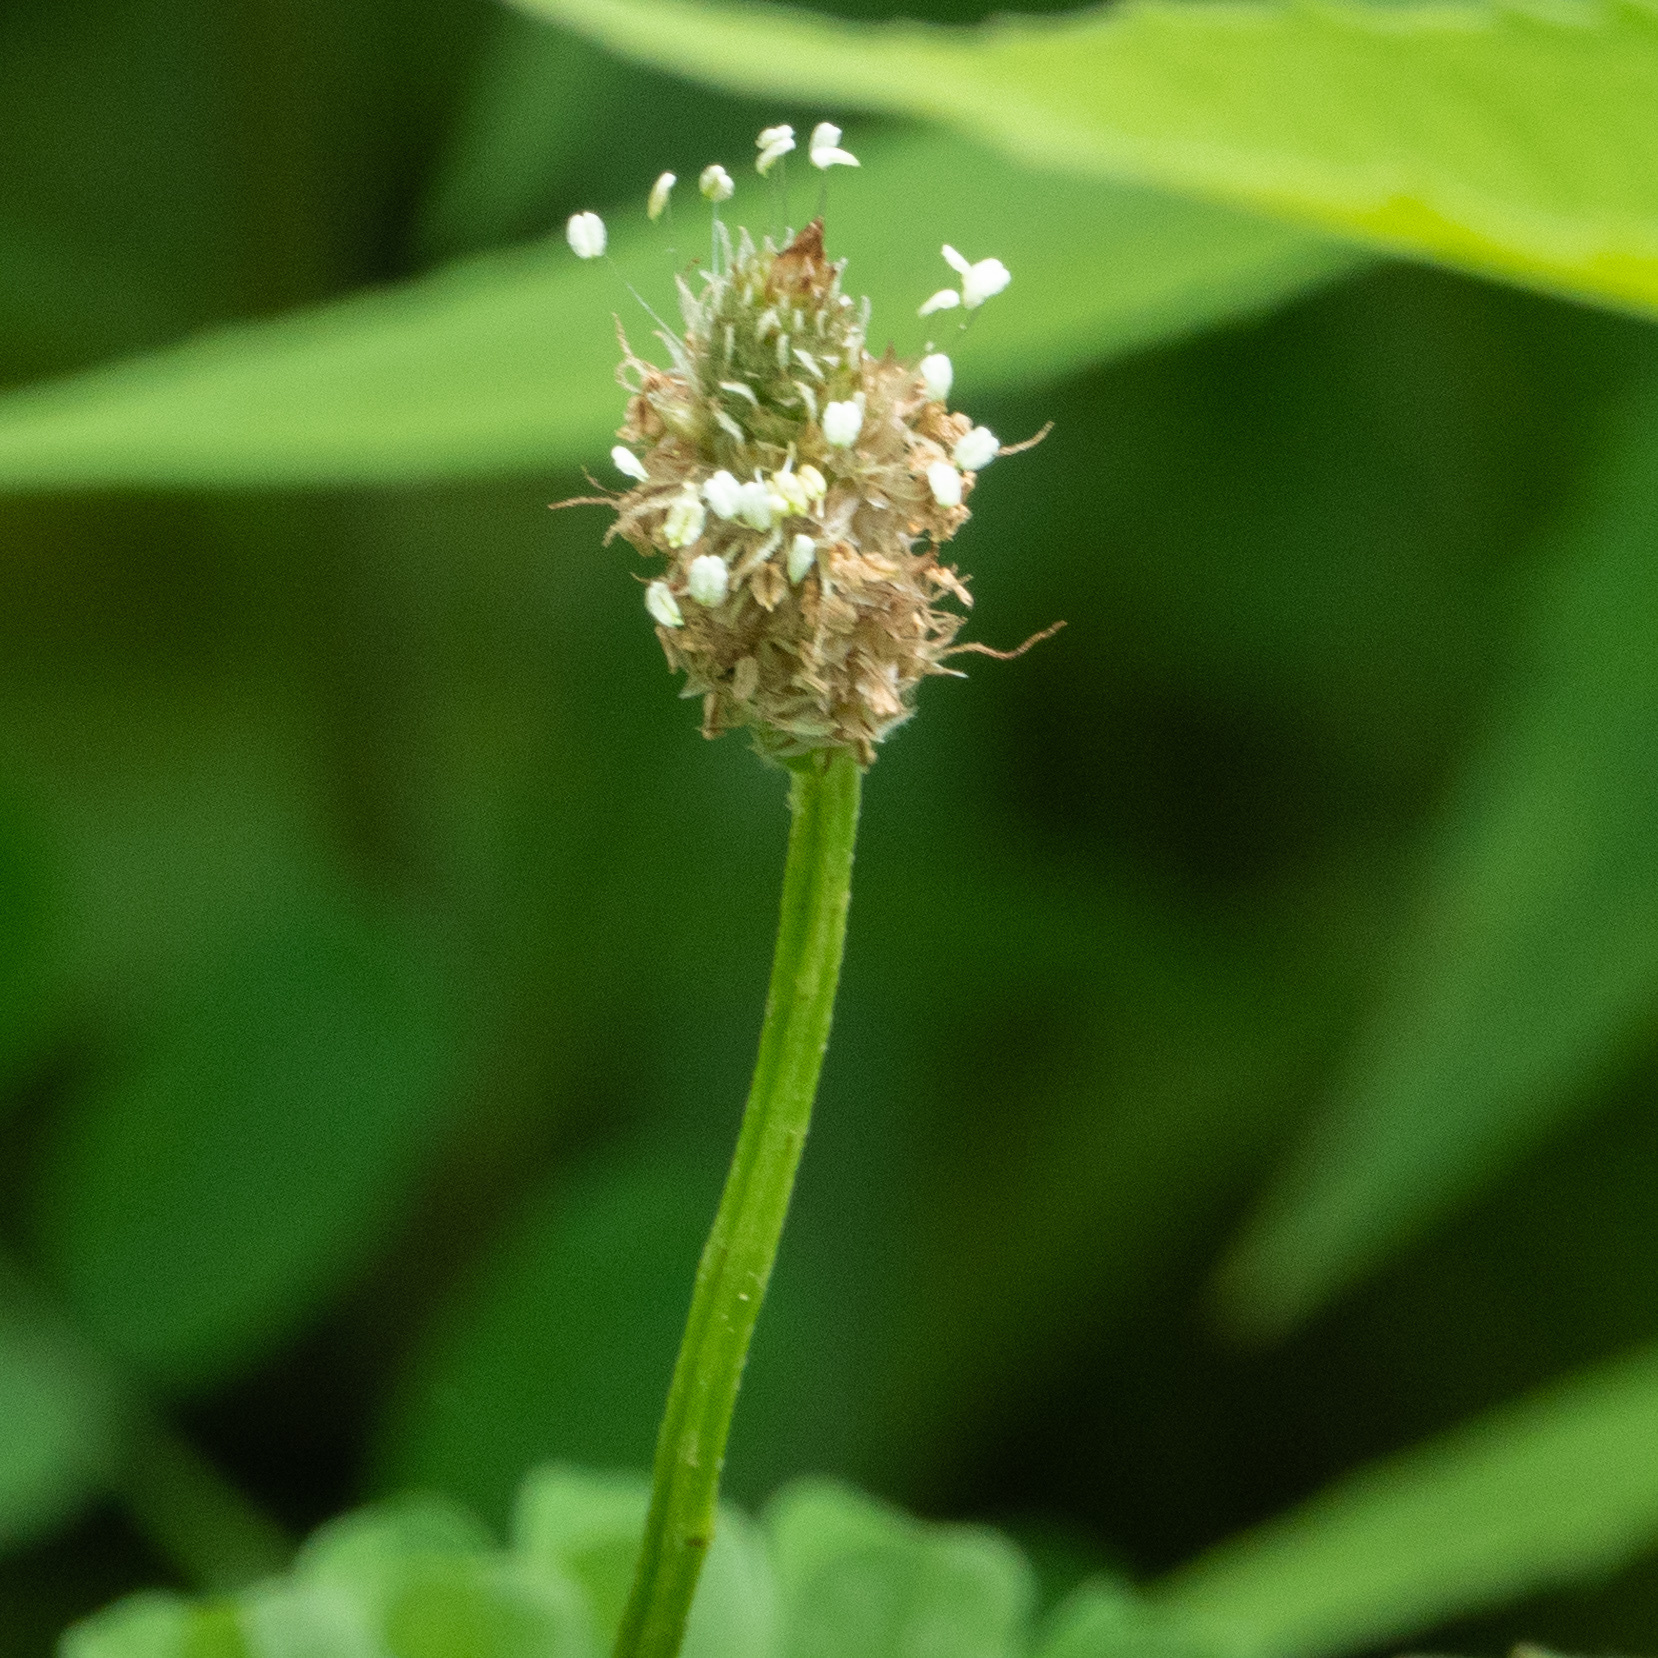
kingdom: Plantae
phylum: Tracheophyta
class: Magnoliopsida
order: Lamiales
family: Plantaginaceae
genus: Plantago
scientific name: Plantago lanceolata
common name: Ribwort plantain
